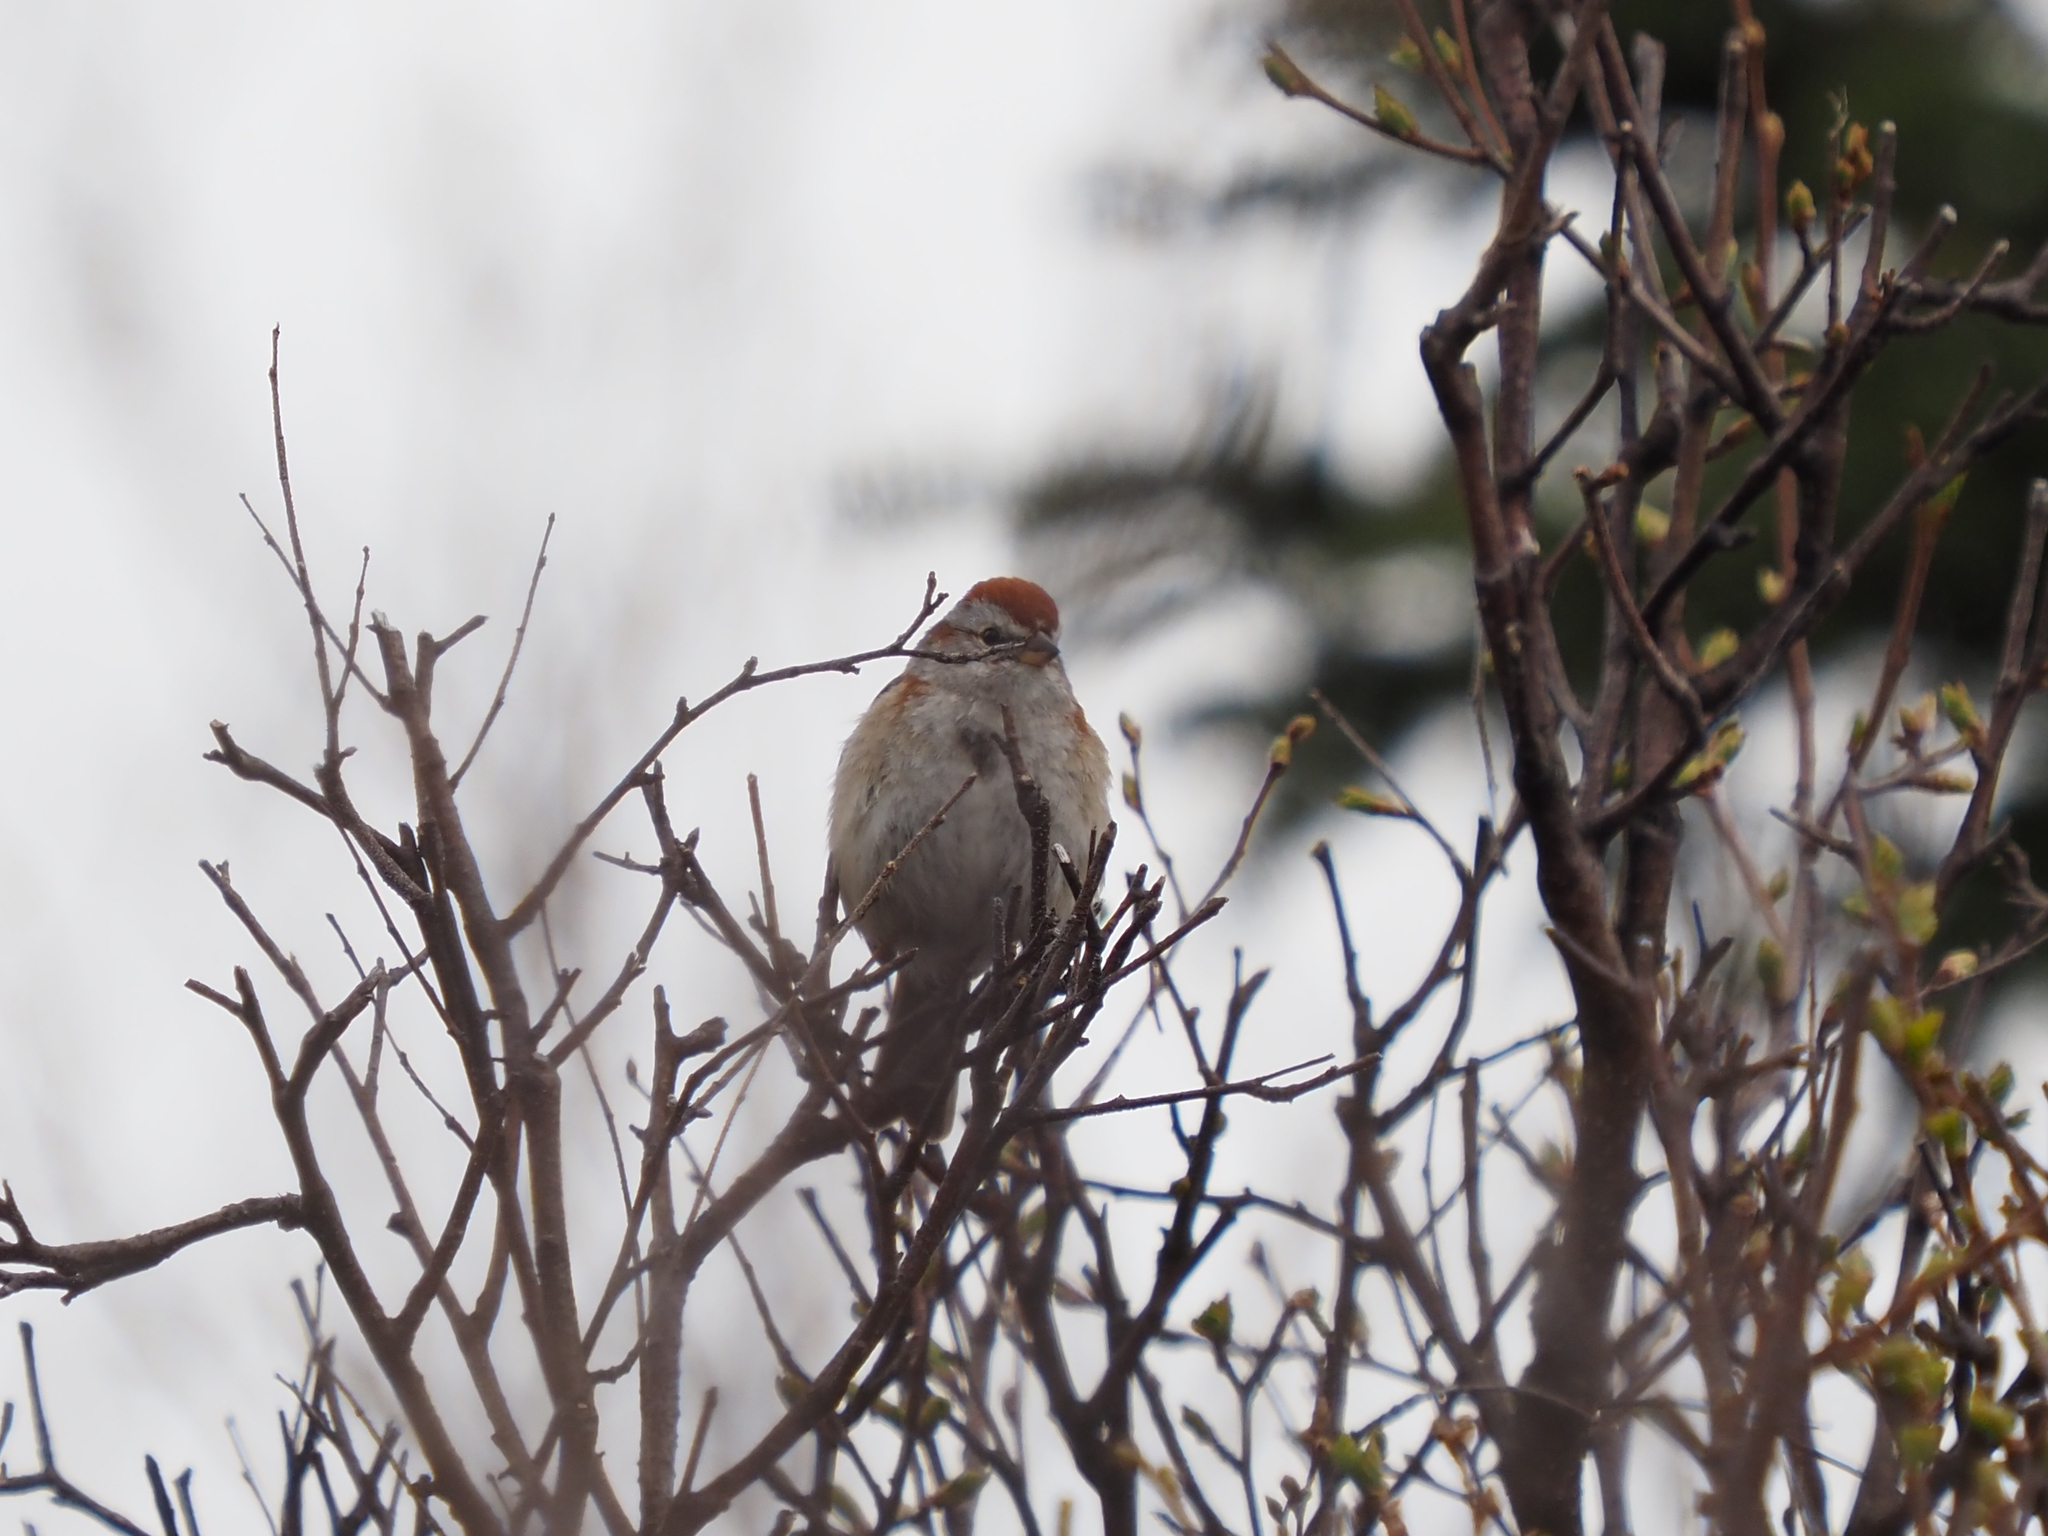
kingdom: Animalia
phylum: Chordata
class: Aves
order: Passeriformes
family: Passerellidae
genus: Spizelloides
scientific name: Spizelloides arborea
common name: American tree sparrow
